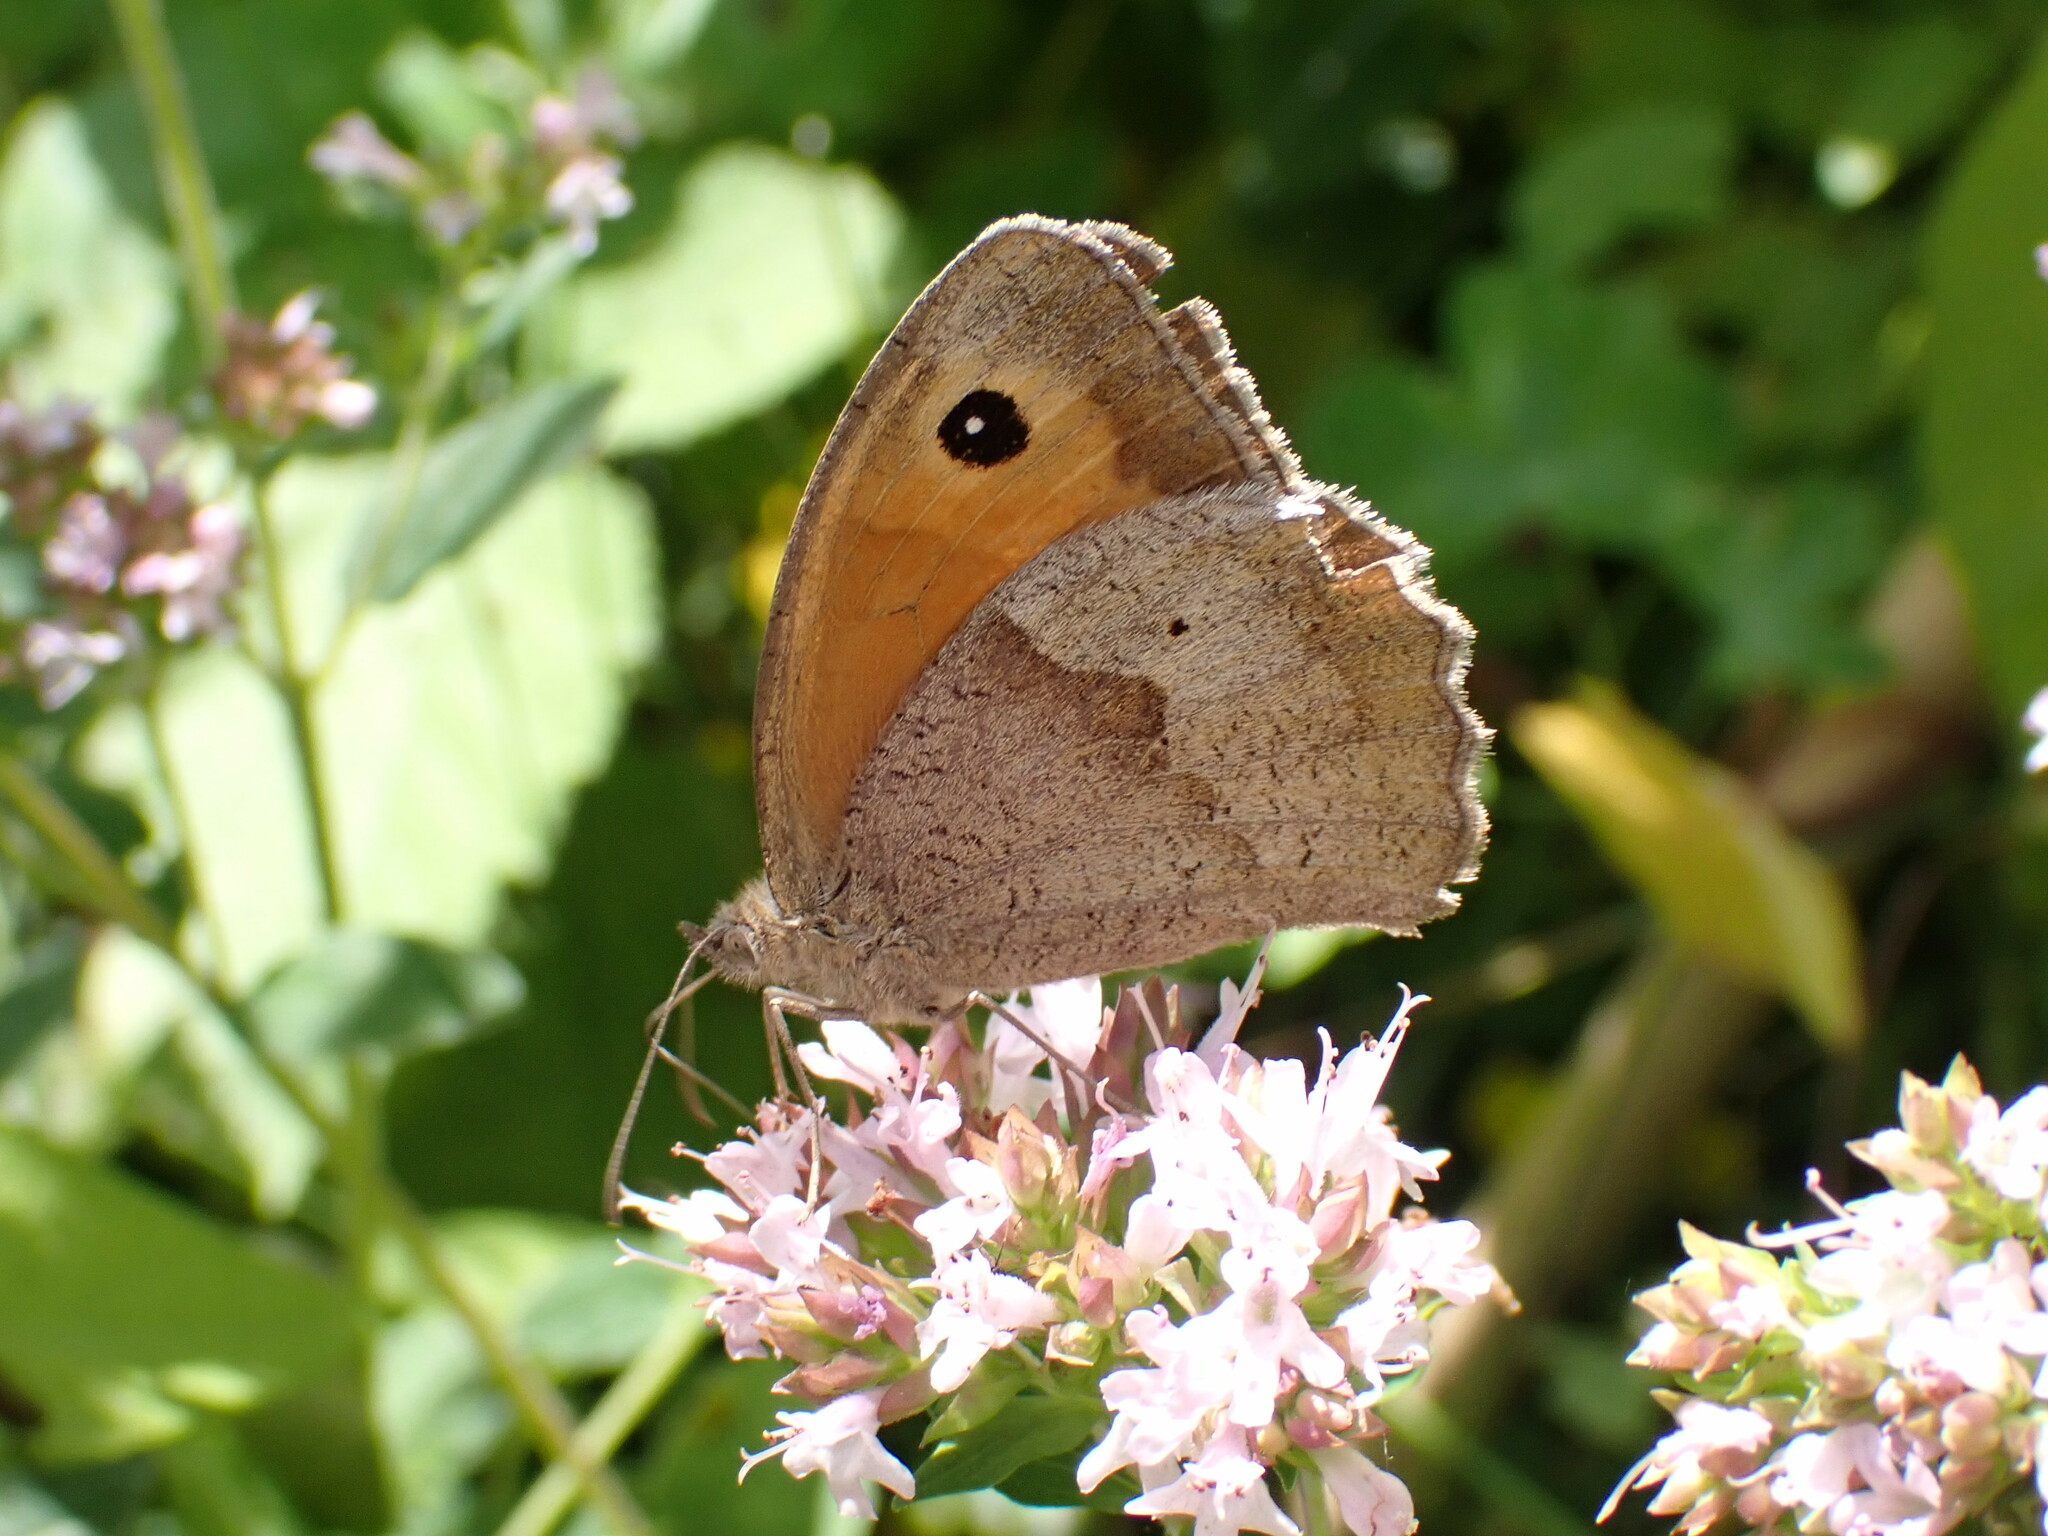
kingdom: Animalia
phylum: Arthropoda
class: Insecta
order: Lepidoptera
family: Nymphalidae
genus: Maniola
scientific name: Maniola jurtina
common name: Meadow brown
